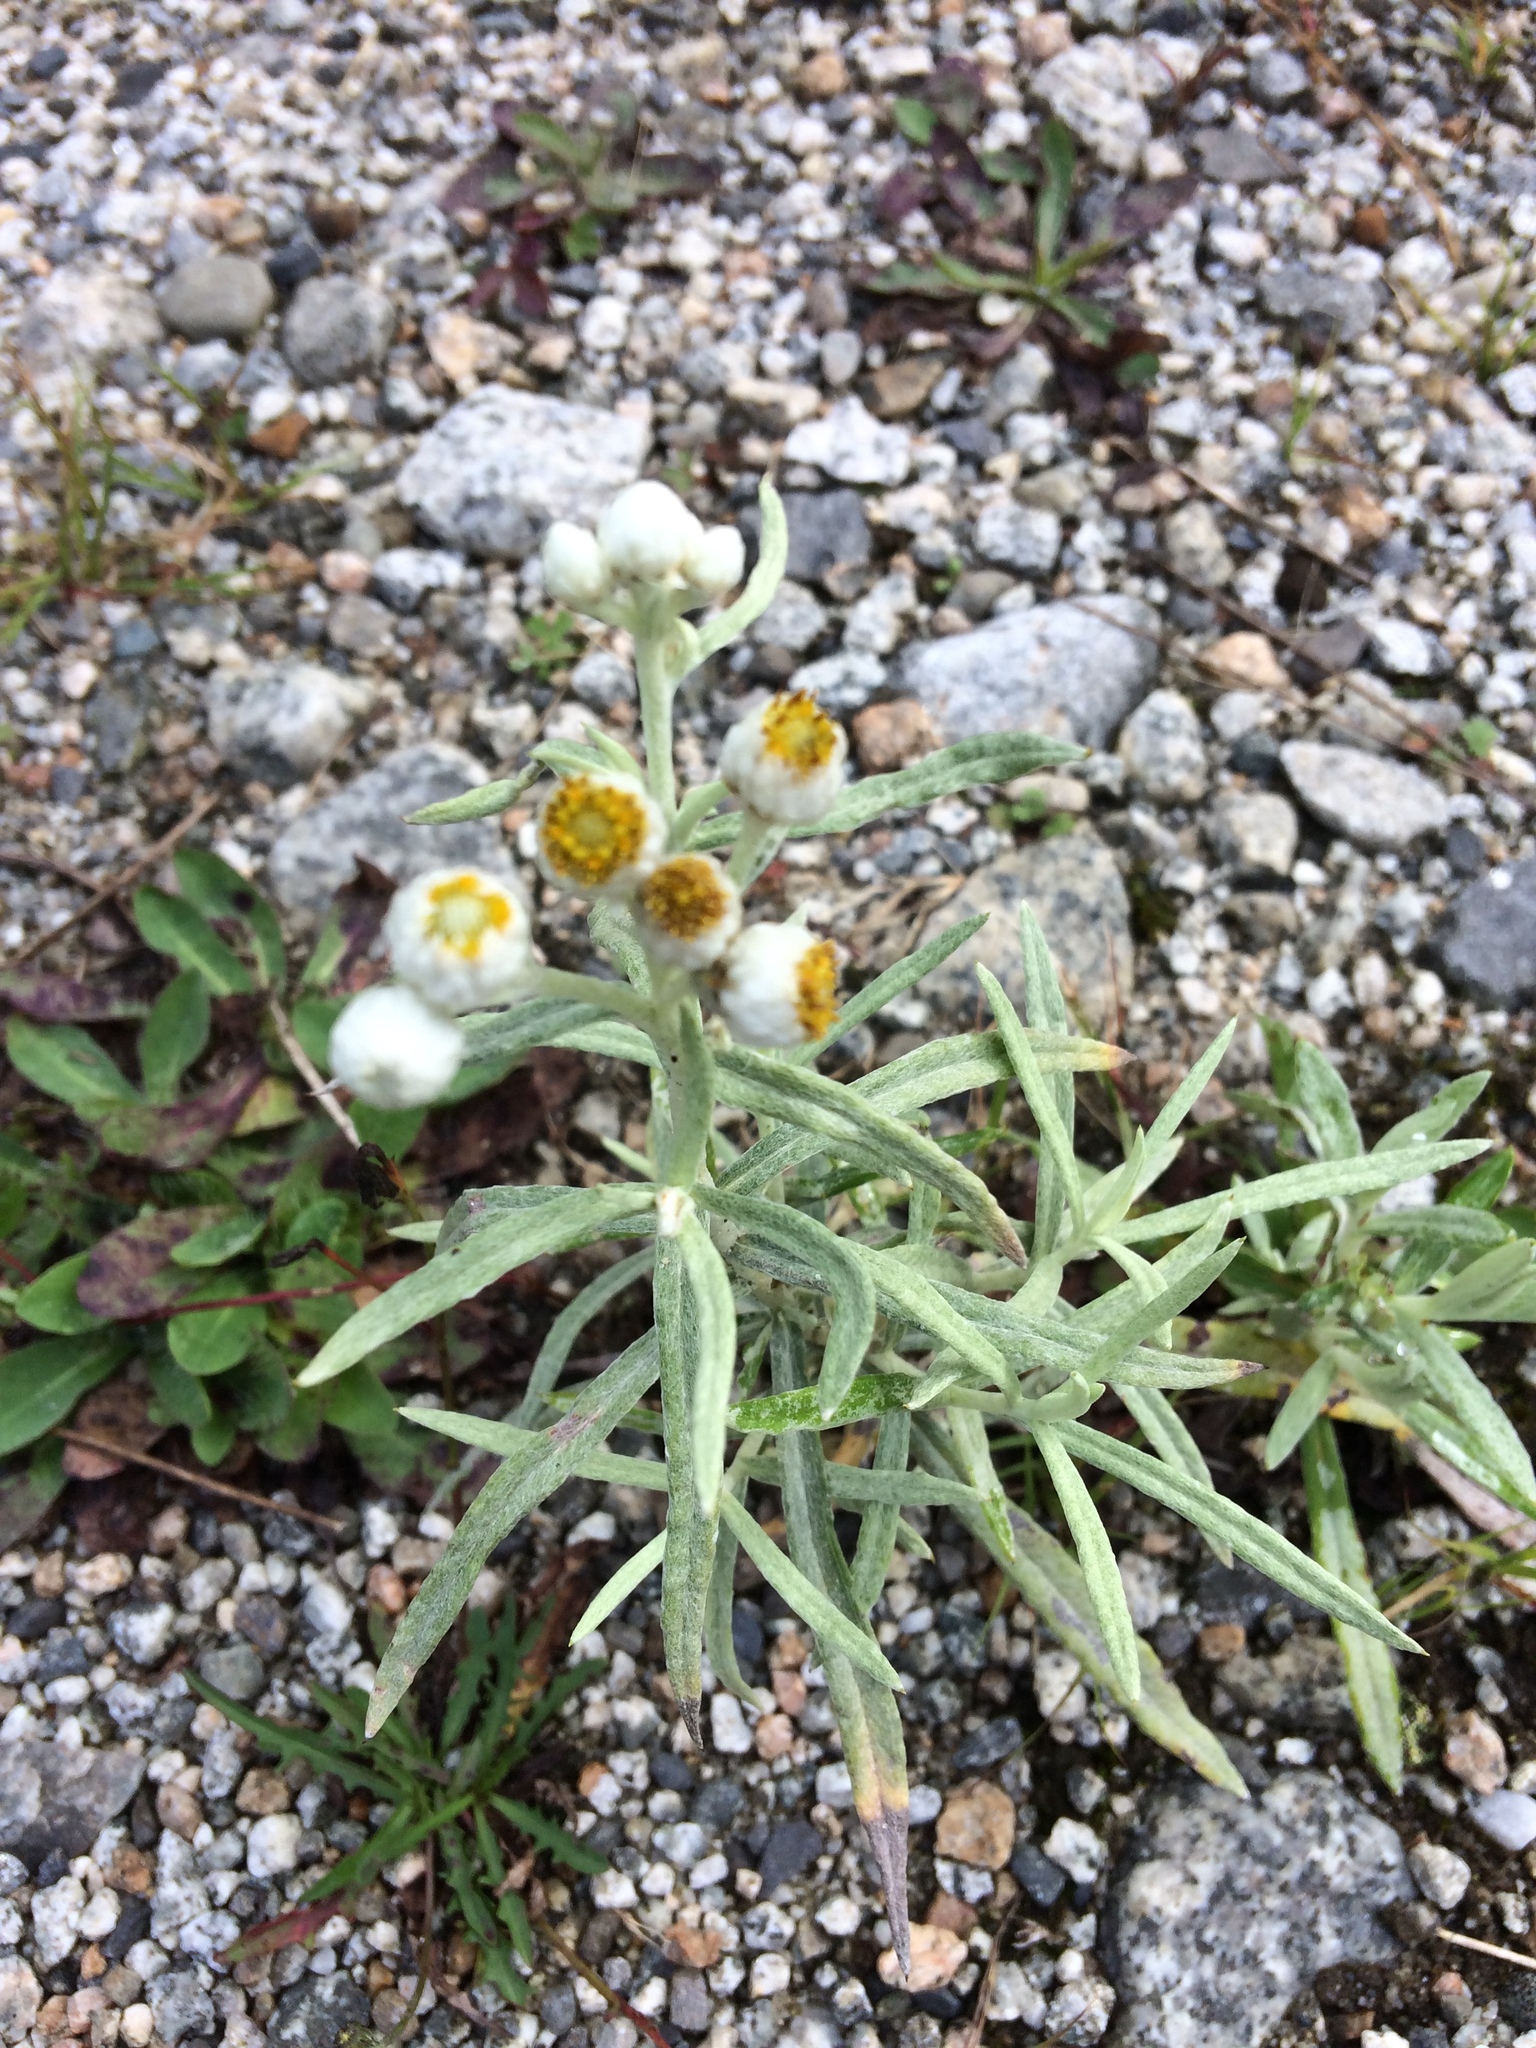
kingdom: Plantae
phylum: Tracheophyta
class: Magnoliopsida
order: Asterales
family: Asteraceae
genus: Anaphalis
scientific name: Anaphalis margaritacea
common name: Pearly everlasting
